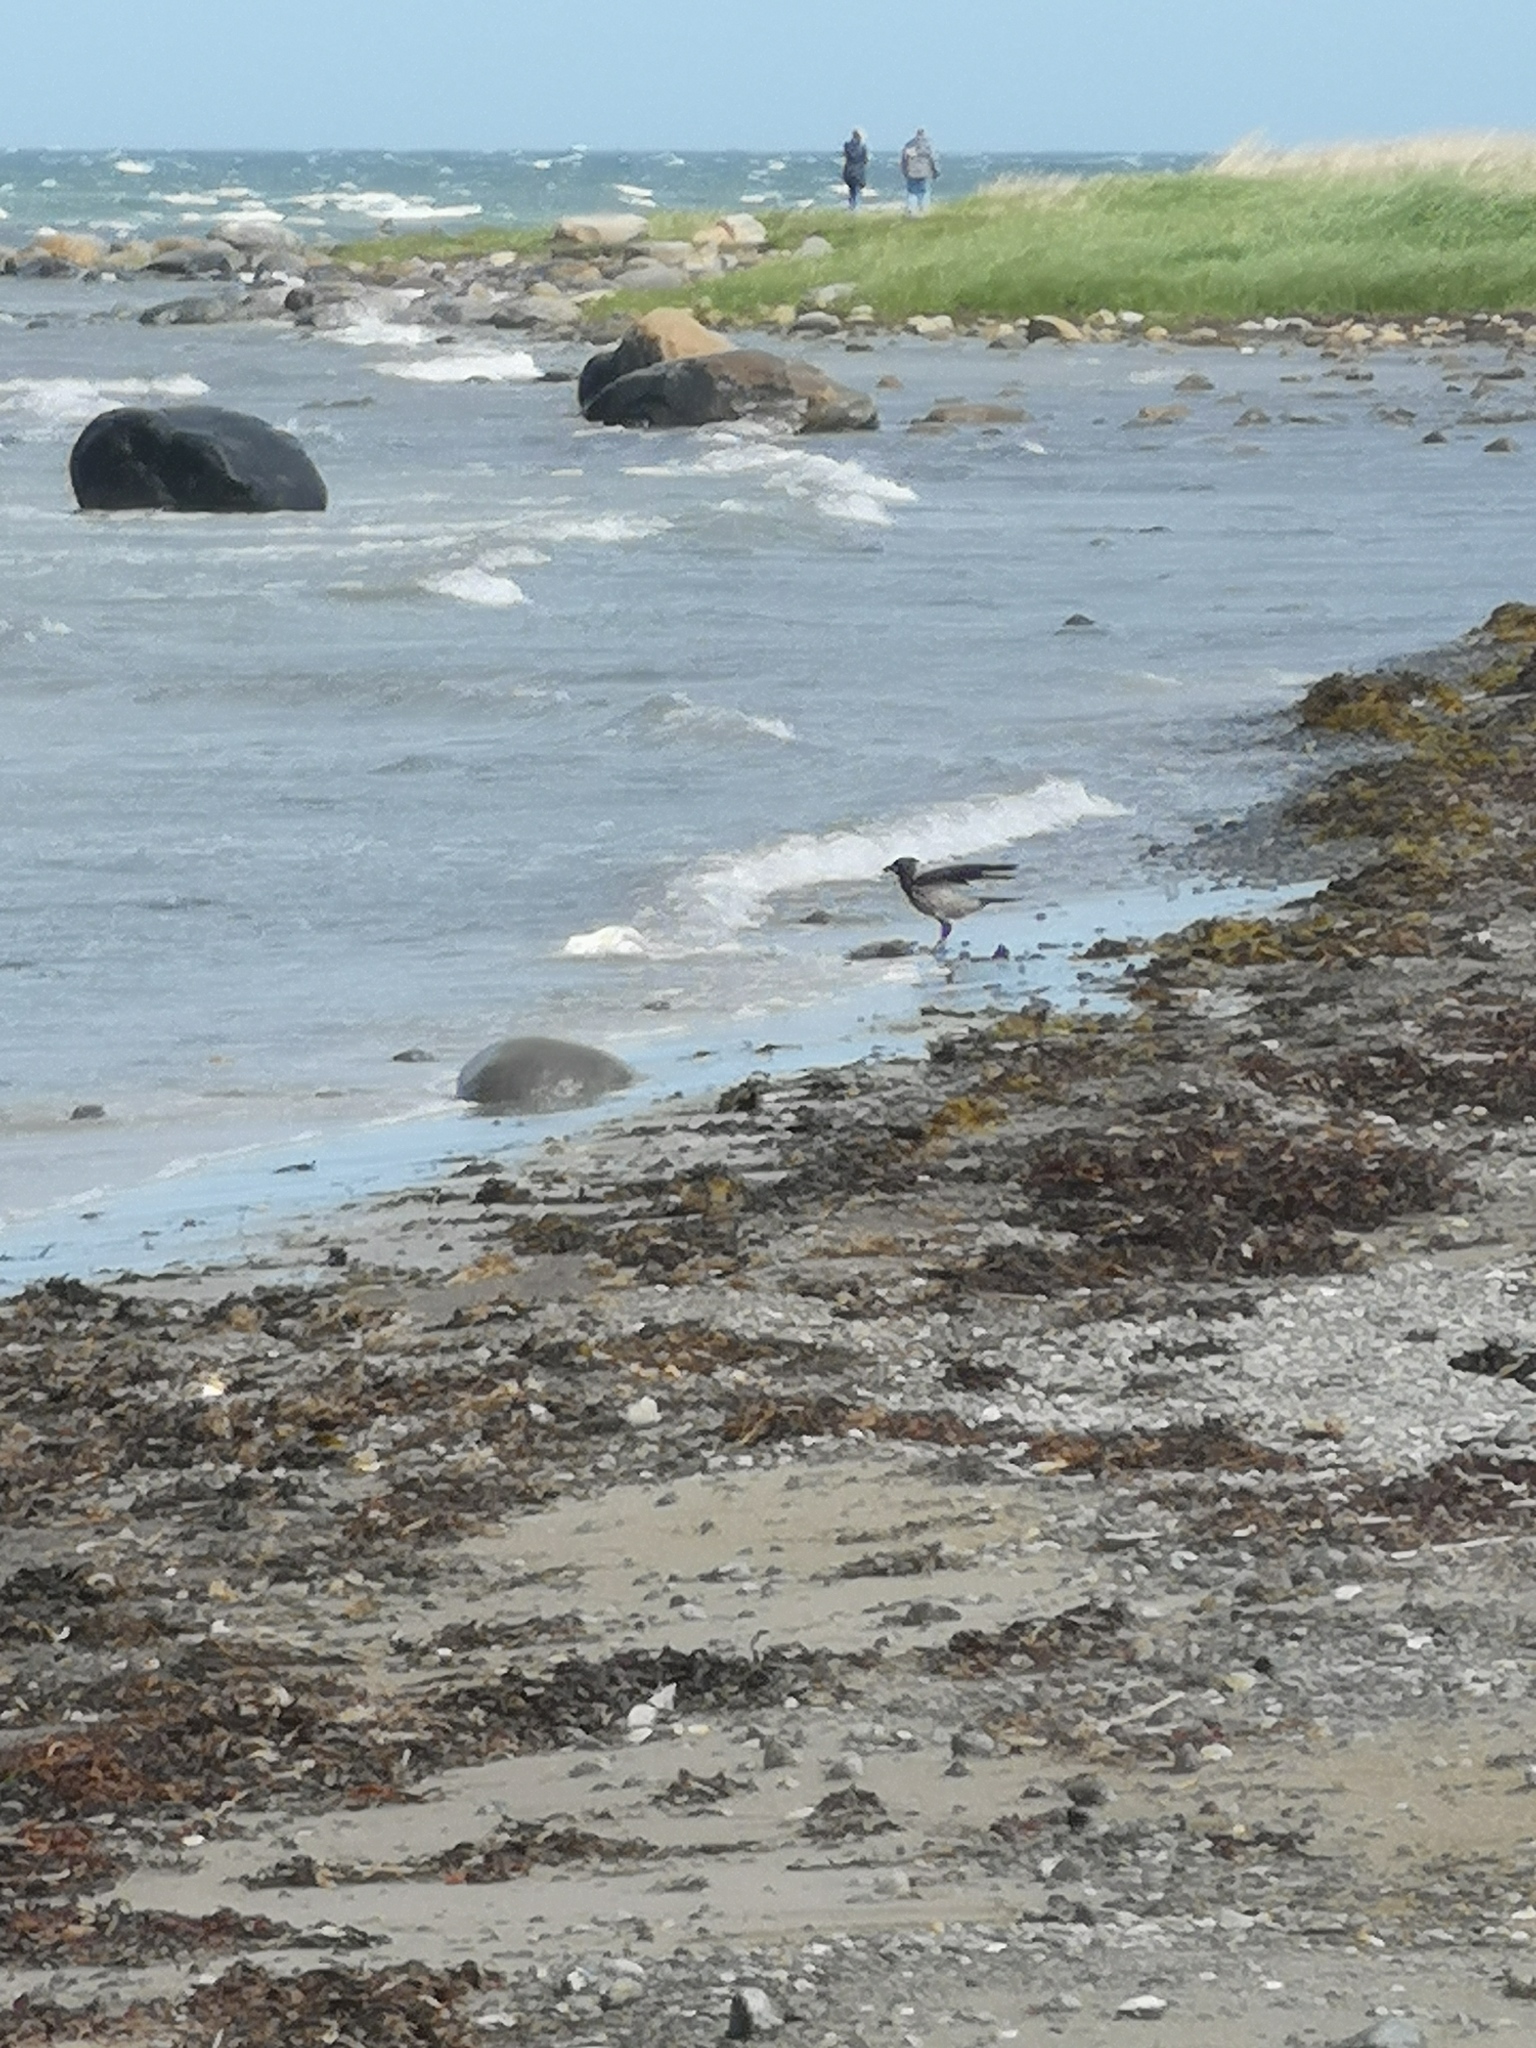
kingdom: Animalia
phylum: Chordata
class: Aves
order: Passeriformes
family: Corvidae
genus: Corvus
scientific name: Corvus cornix
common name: Hooded crow
